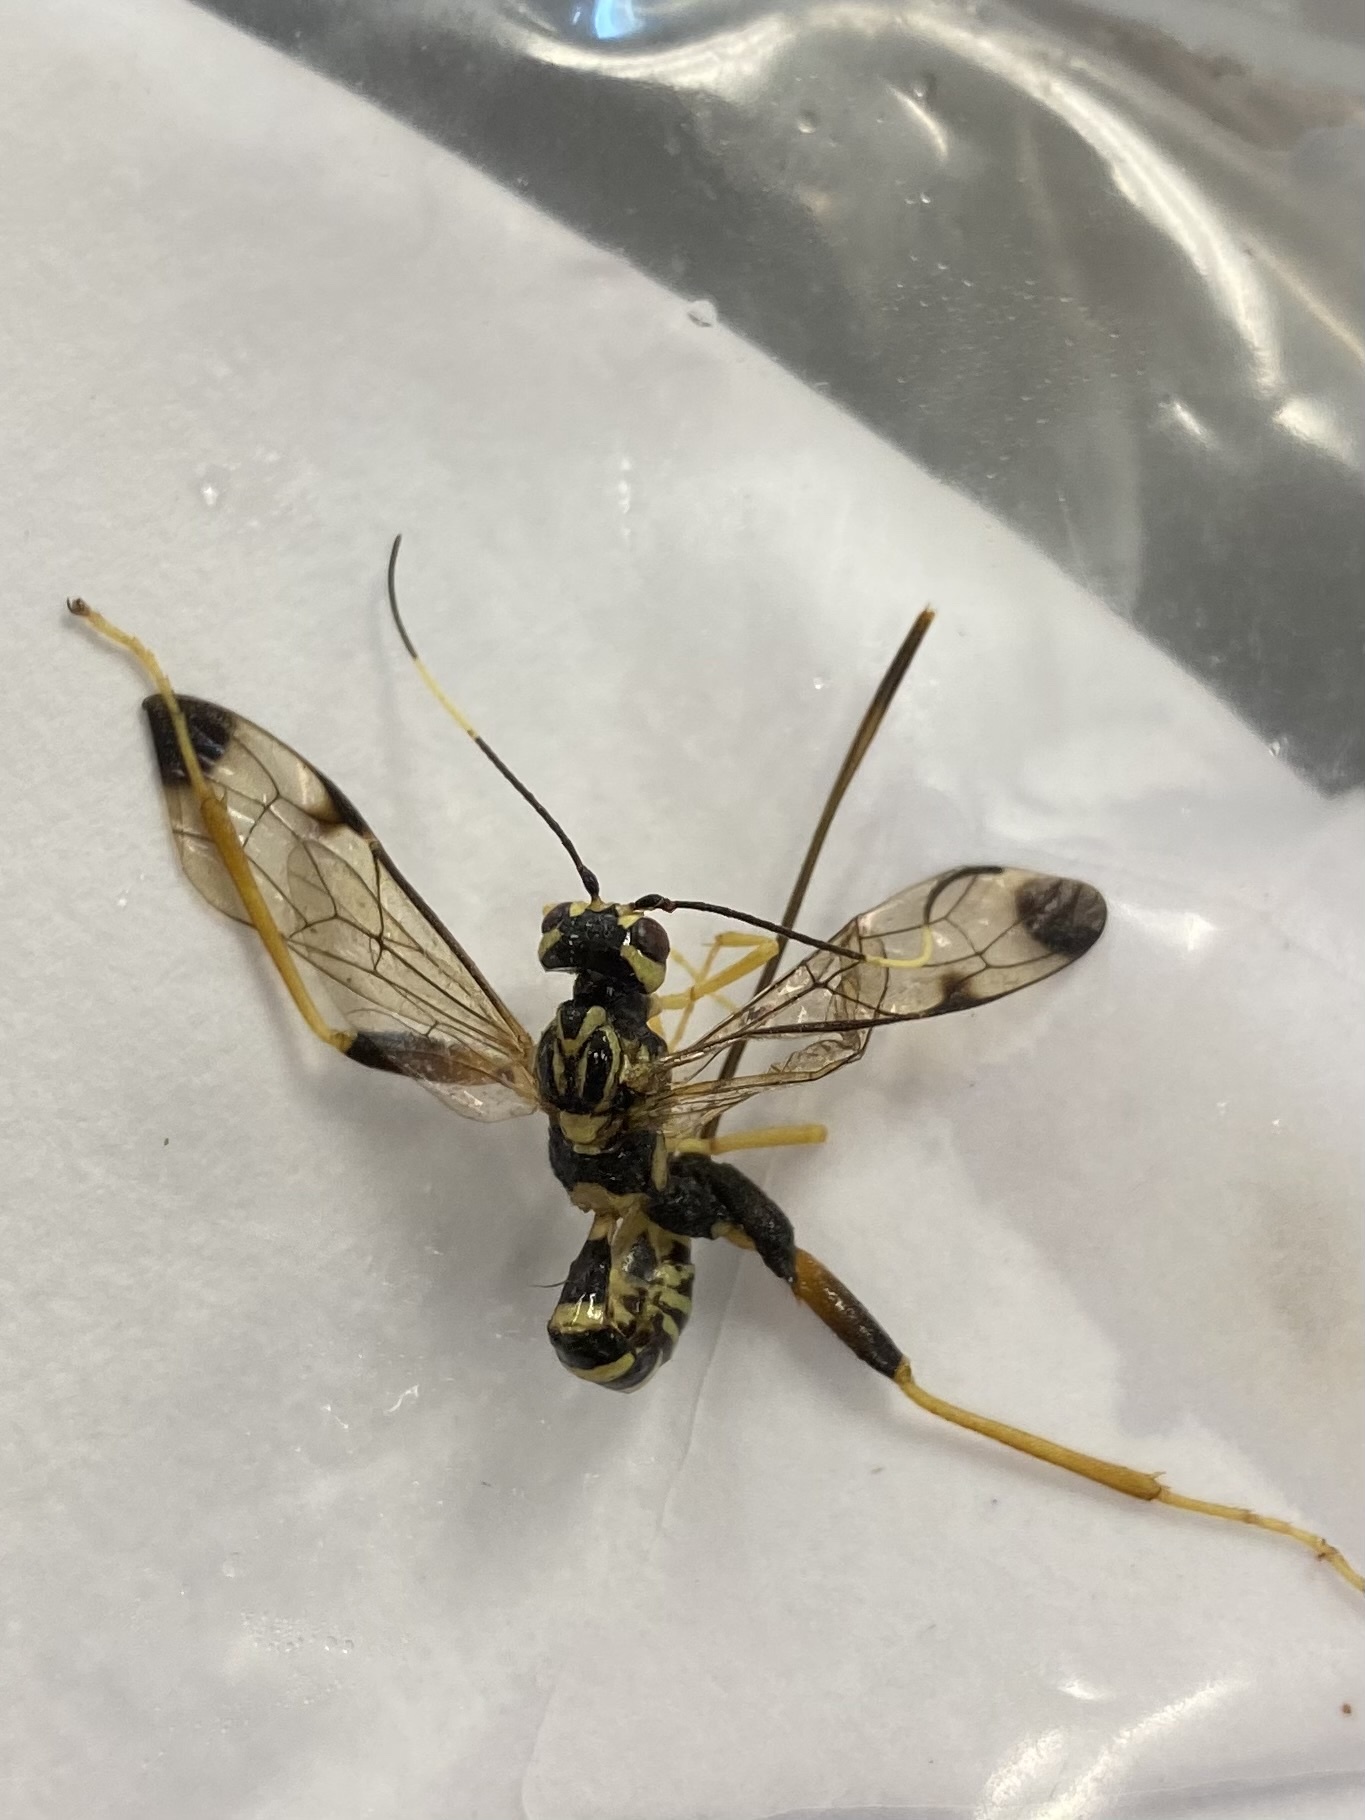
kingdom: Animalia
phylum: Arthropoda
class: Insecta
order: Hymenoptera
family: Ichneumonidae
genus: Spilopteron
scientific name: Spilopteron formosum
